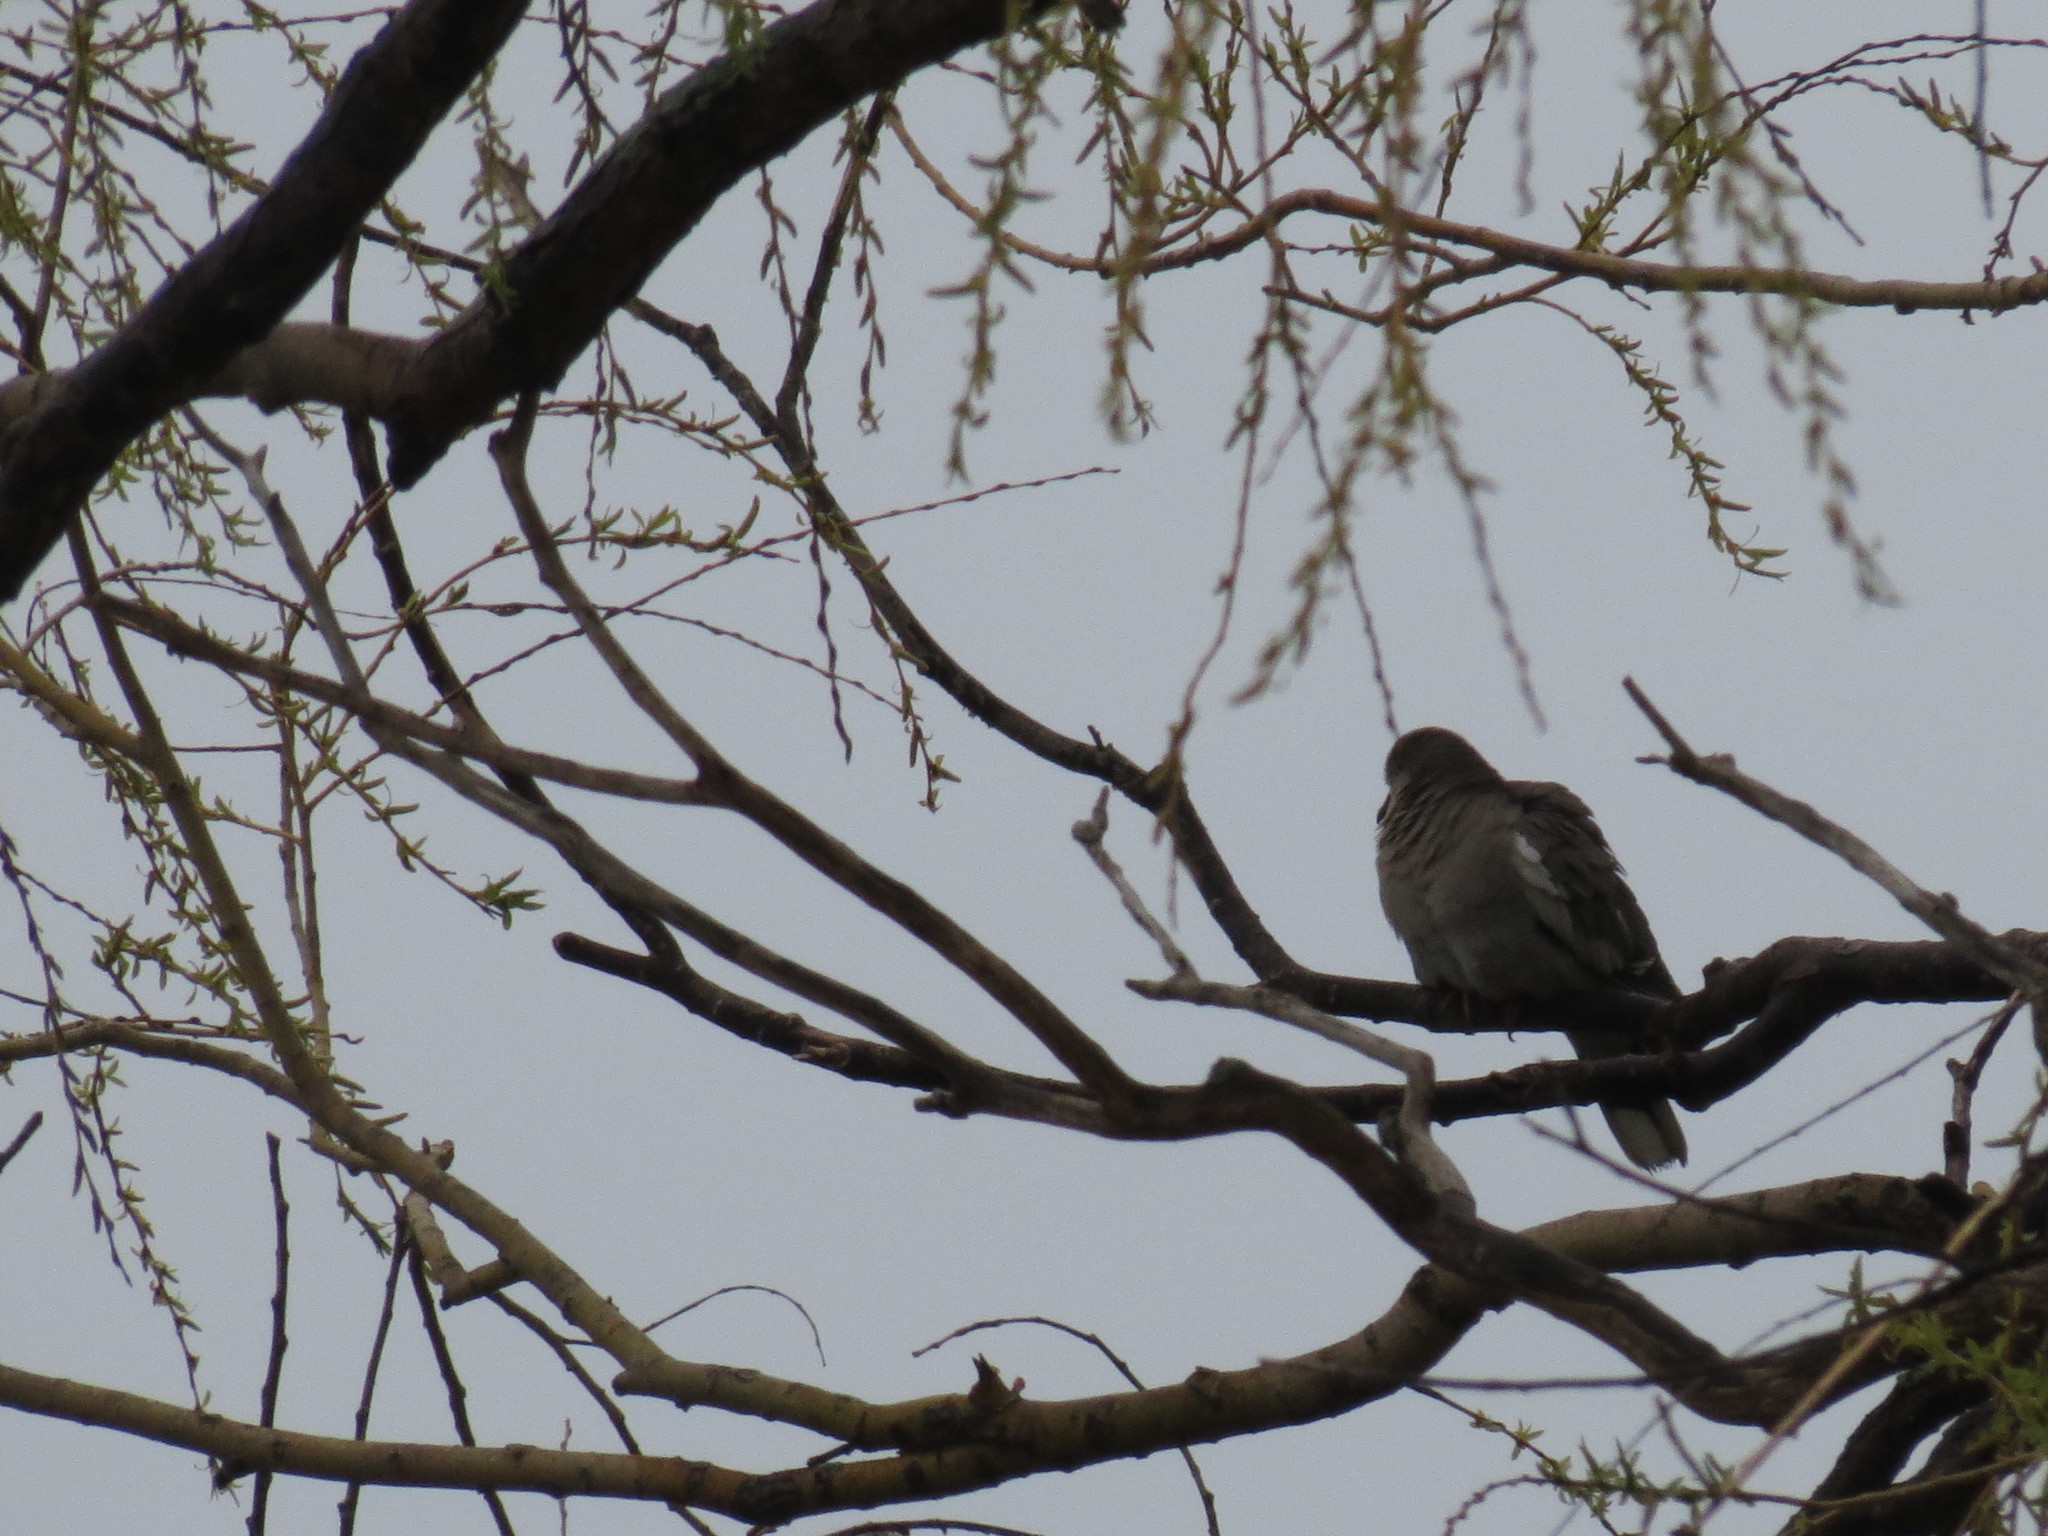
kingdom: Animalia
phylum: Chordata
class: Aves
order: Columbiformes
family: Columbidae
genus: Zenaida
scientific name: Zenaida asiatica
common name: White-winged dove
